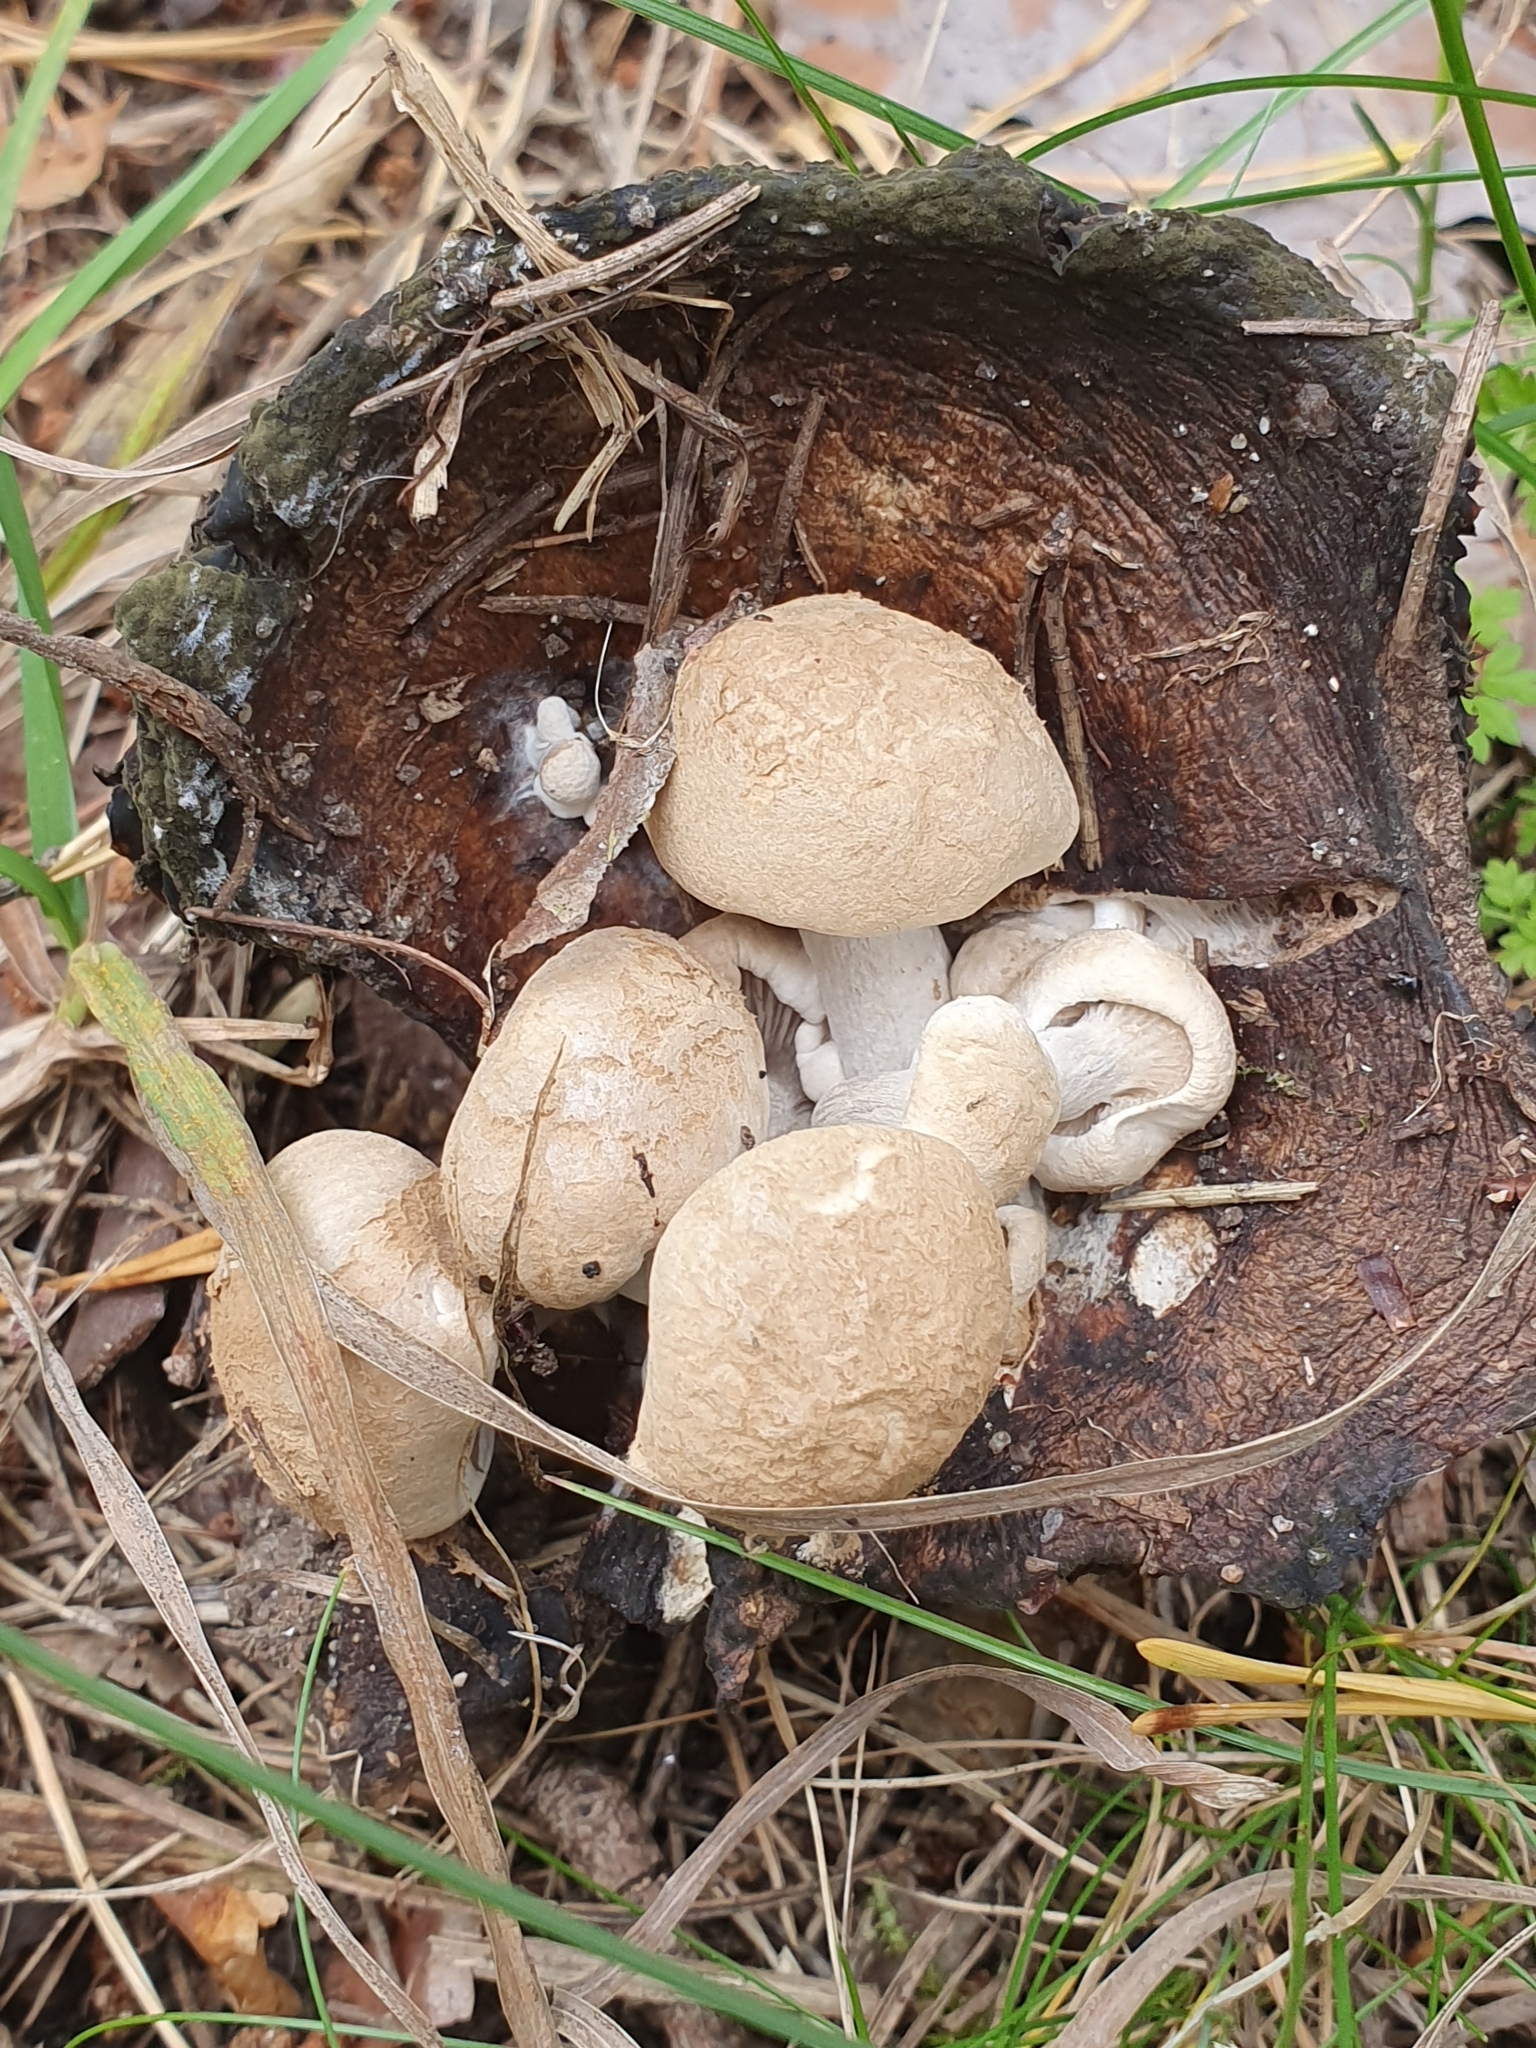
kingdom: Fungi
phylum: Basidiomycota
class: Agaricomycetes
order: Agaricales
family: Lyophyllaceae
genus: Asterophora
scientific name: Asterophora lycoperdoides
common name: Pick-a-back toadstool
